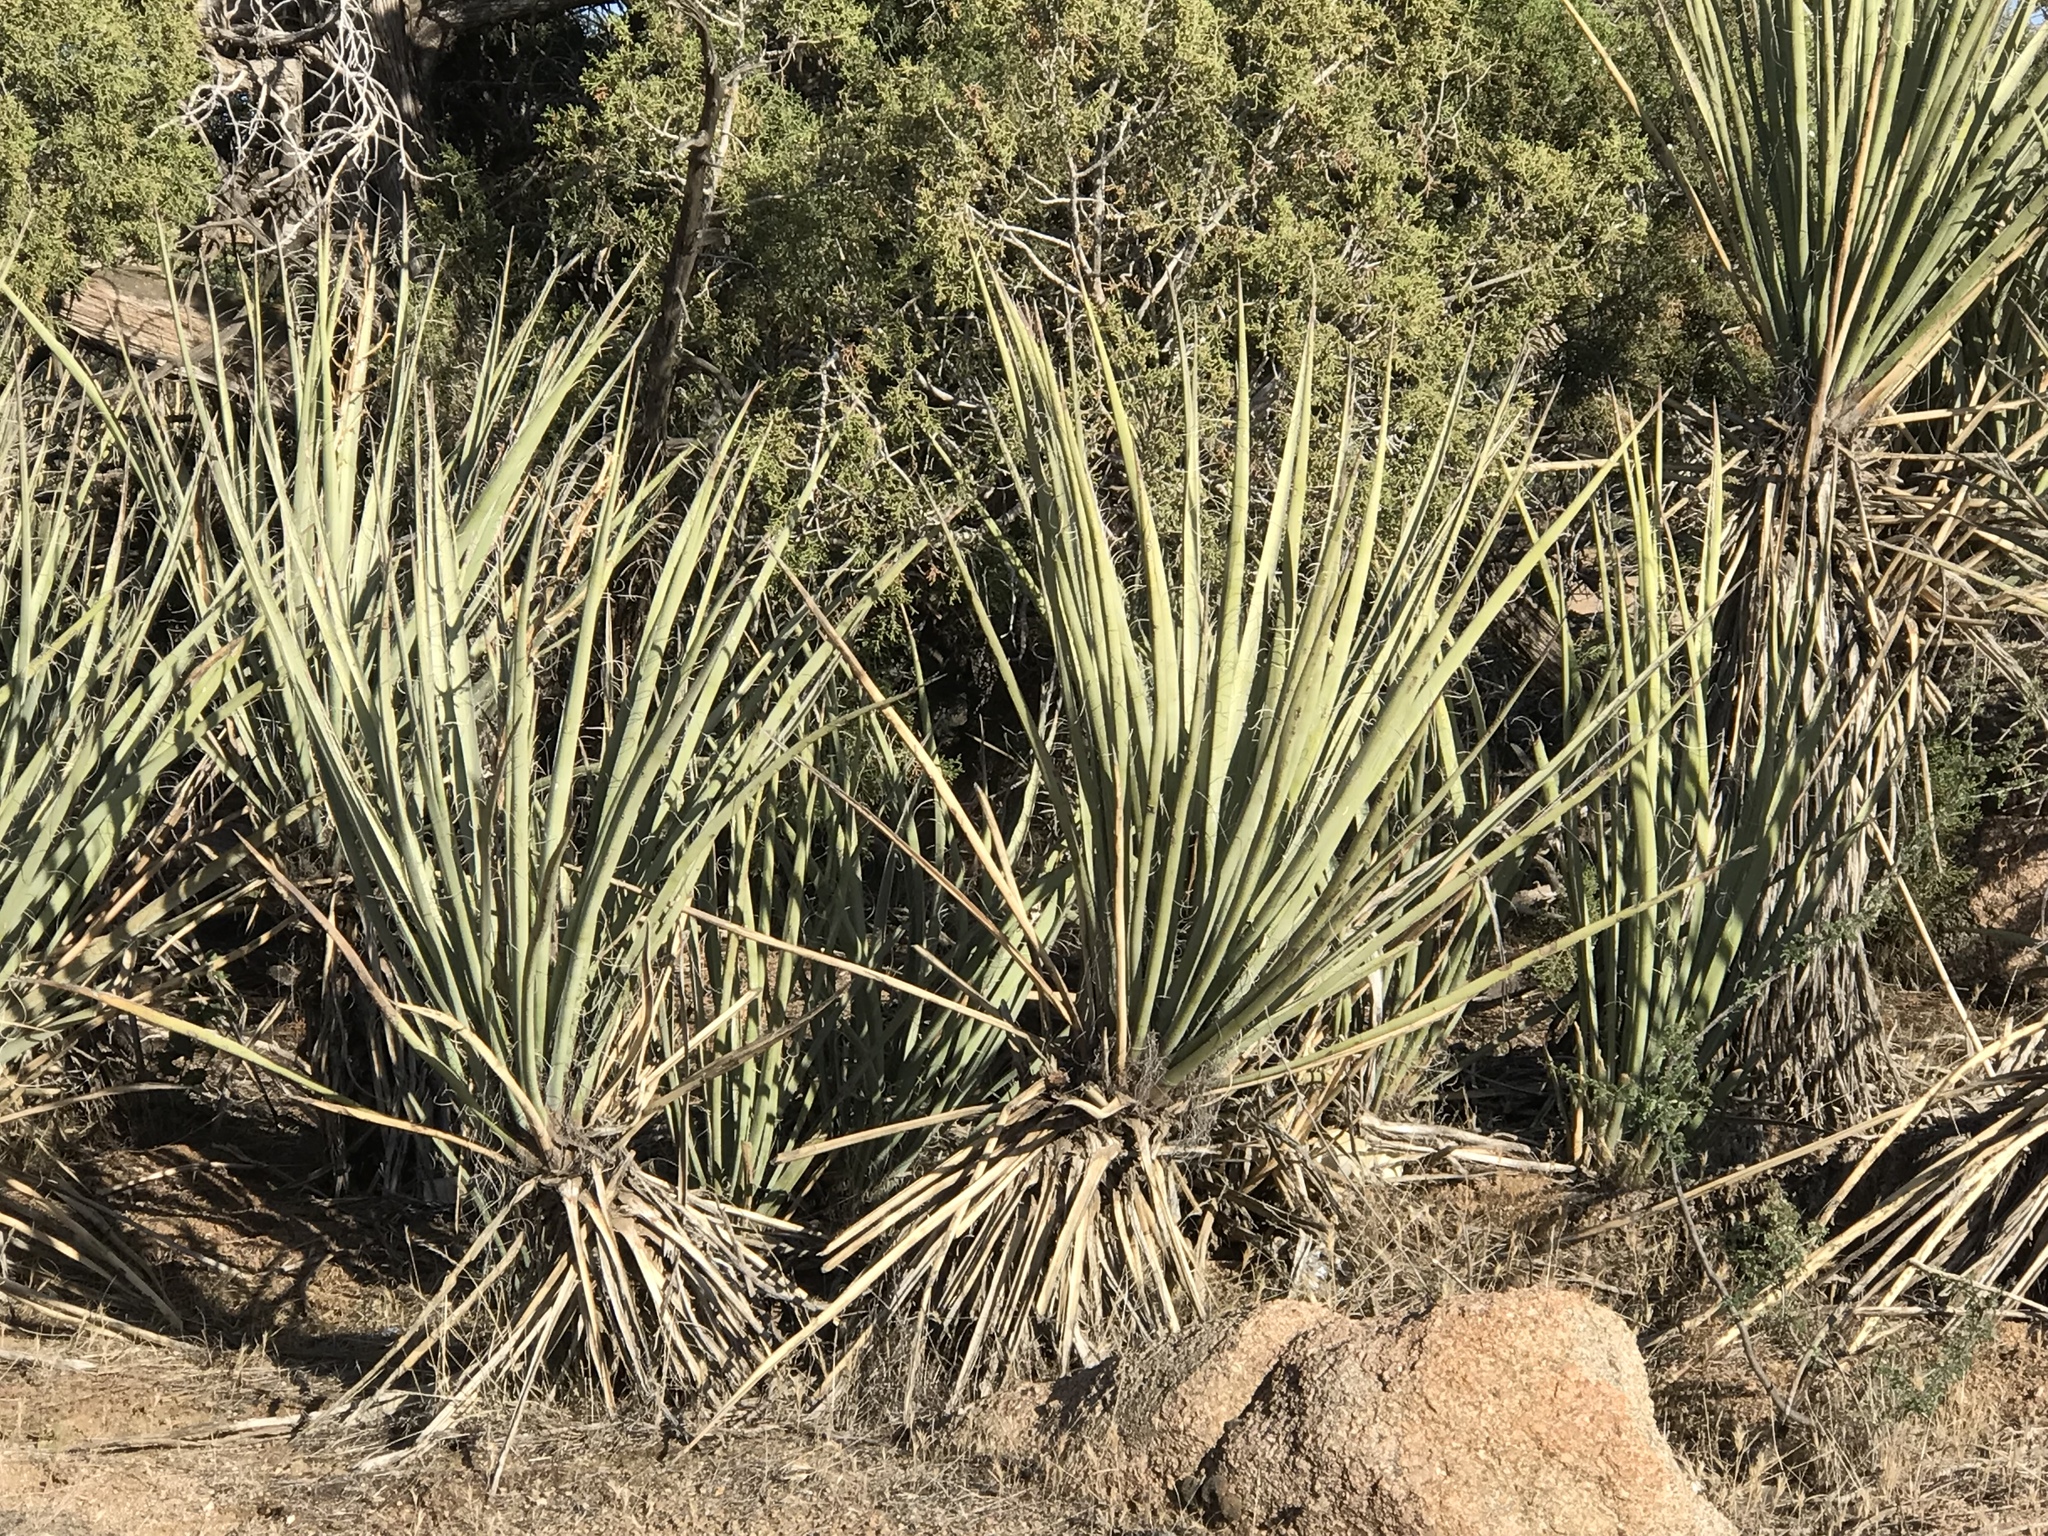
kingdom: Plantae
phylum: Tracheophyta
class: Liliopsida
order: Asparagales
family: Asparagaceae
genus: Yucca
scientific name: Yucca baccata
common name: Banana yucca
